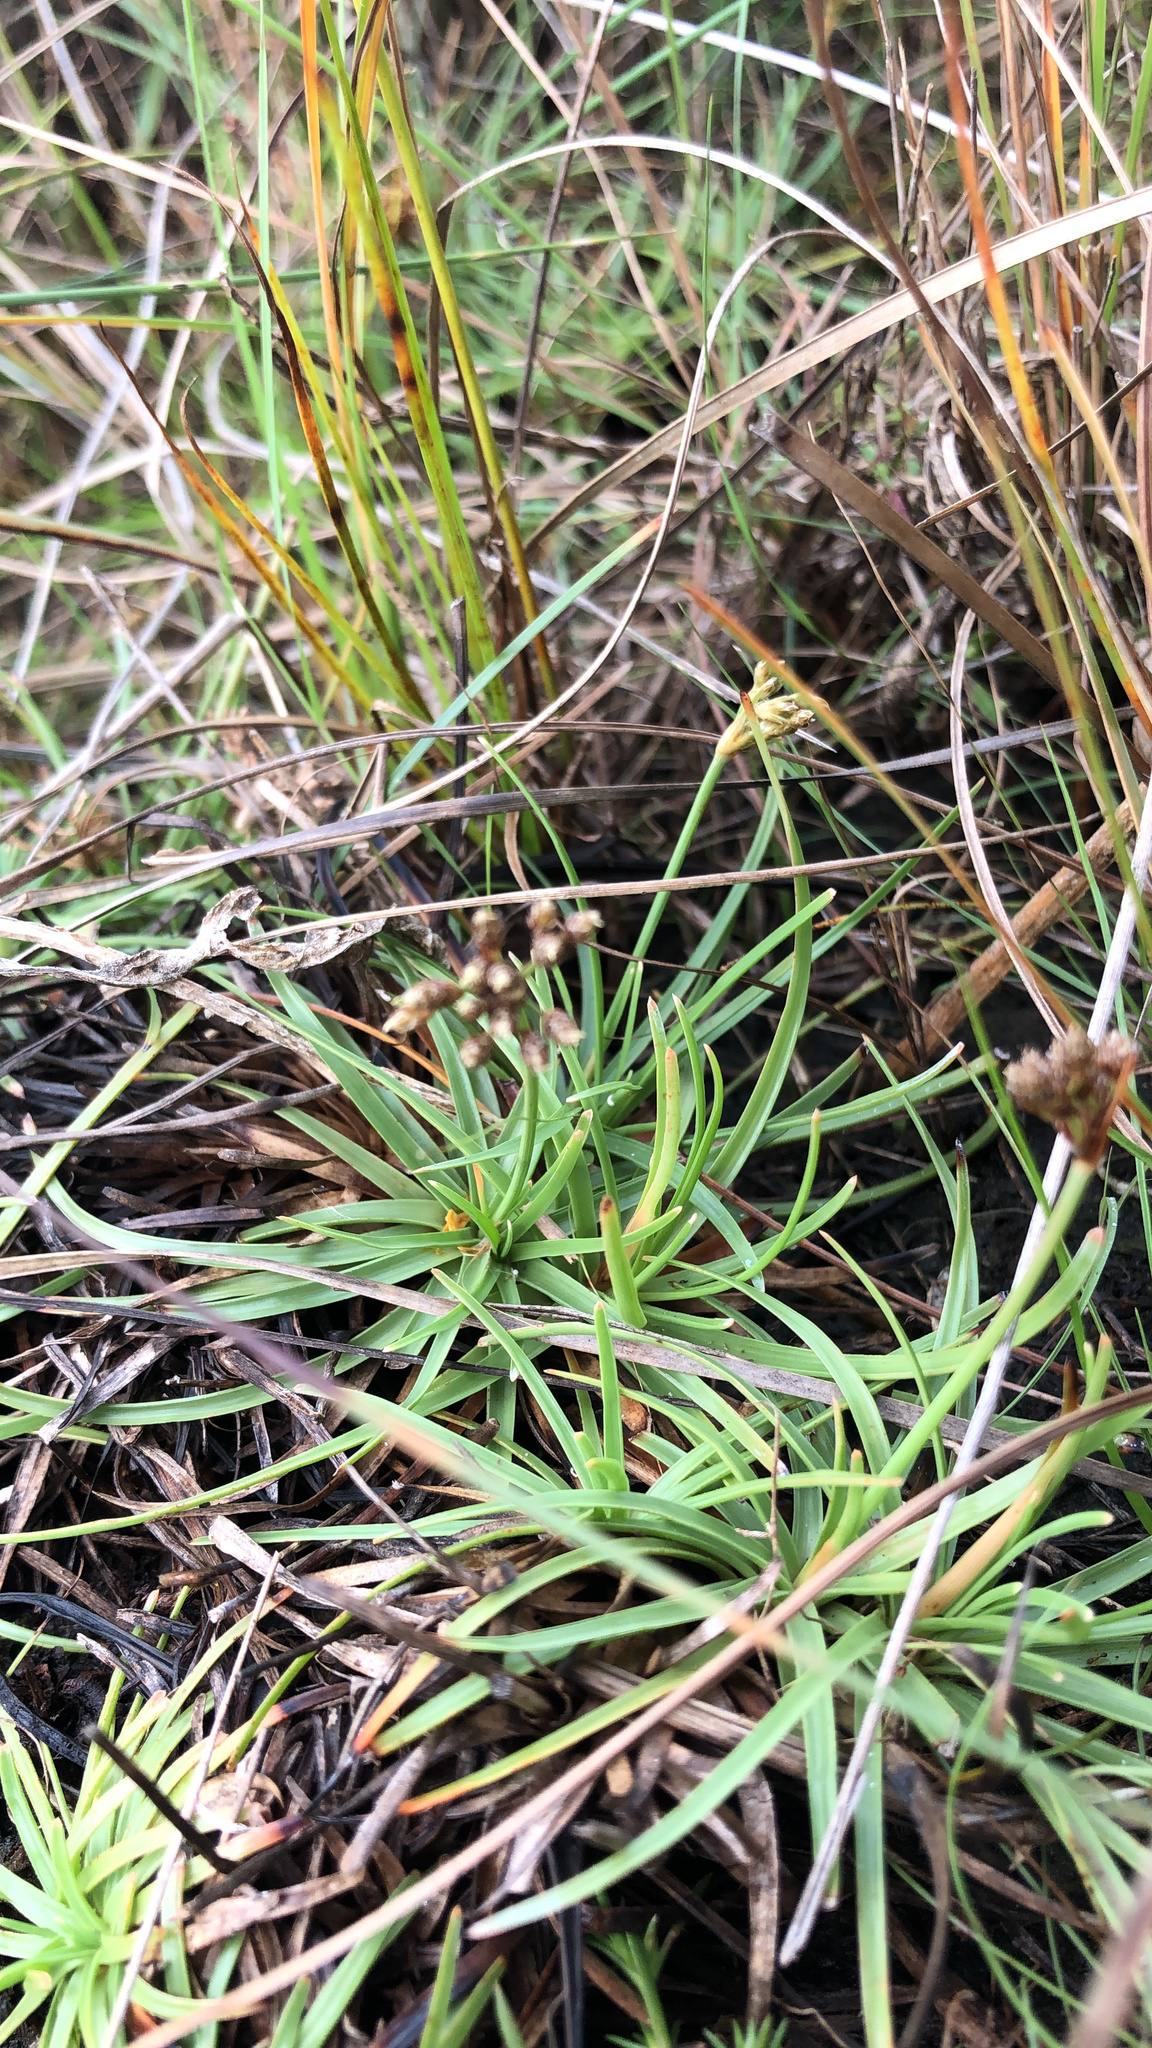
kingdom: Plantae
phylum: Tracheophyta
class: Liliopsida
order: Poales
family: Cyperaceae
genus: Fimbristylis
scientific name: Fimbristylis cymosa
